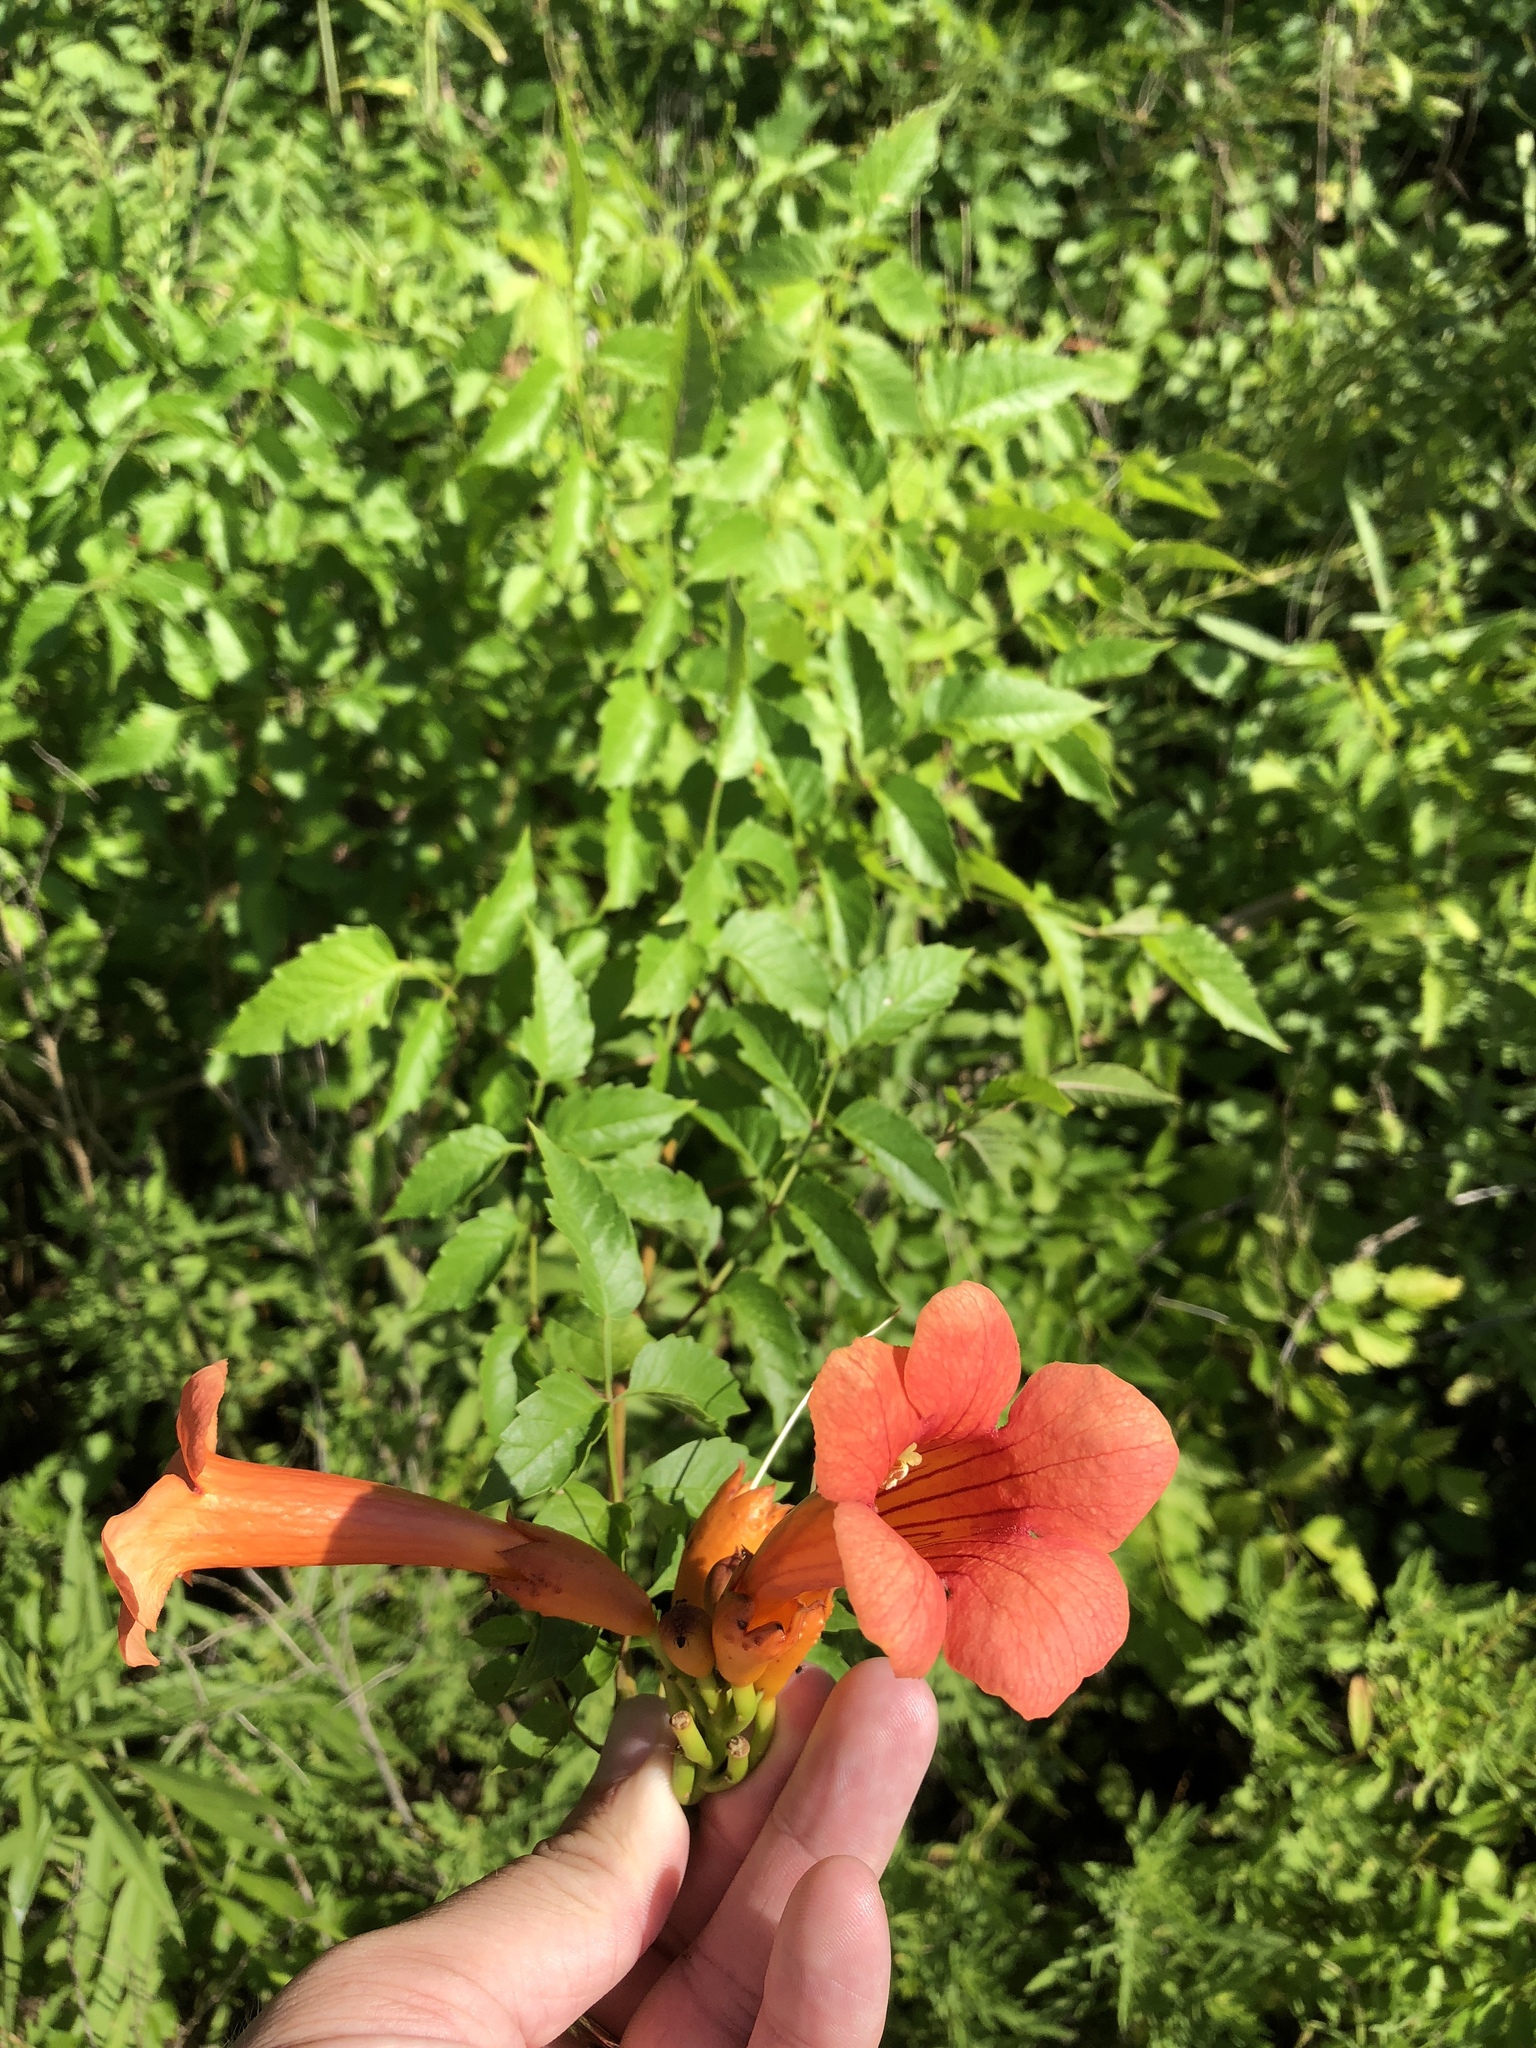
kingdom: Plantae
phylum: Tracheophyta
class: Magnoliopsida
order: Lamiales
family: Bignoniaceae
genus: Campsis
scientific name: Campsis radicans
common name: Trumpet-creeper
